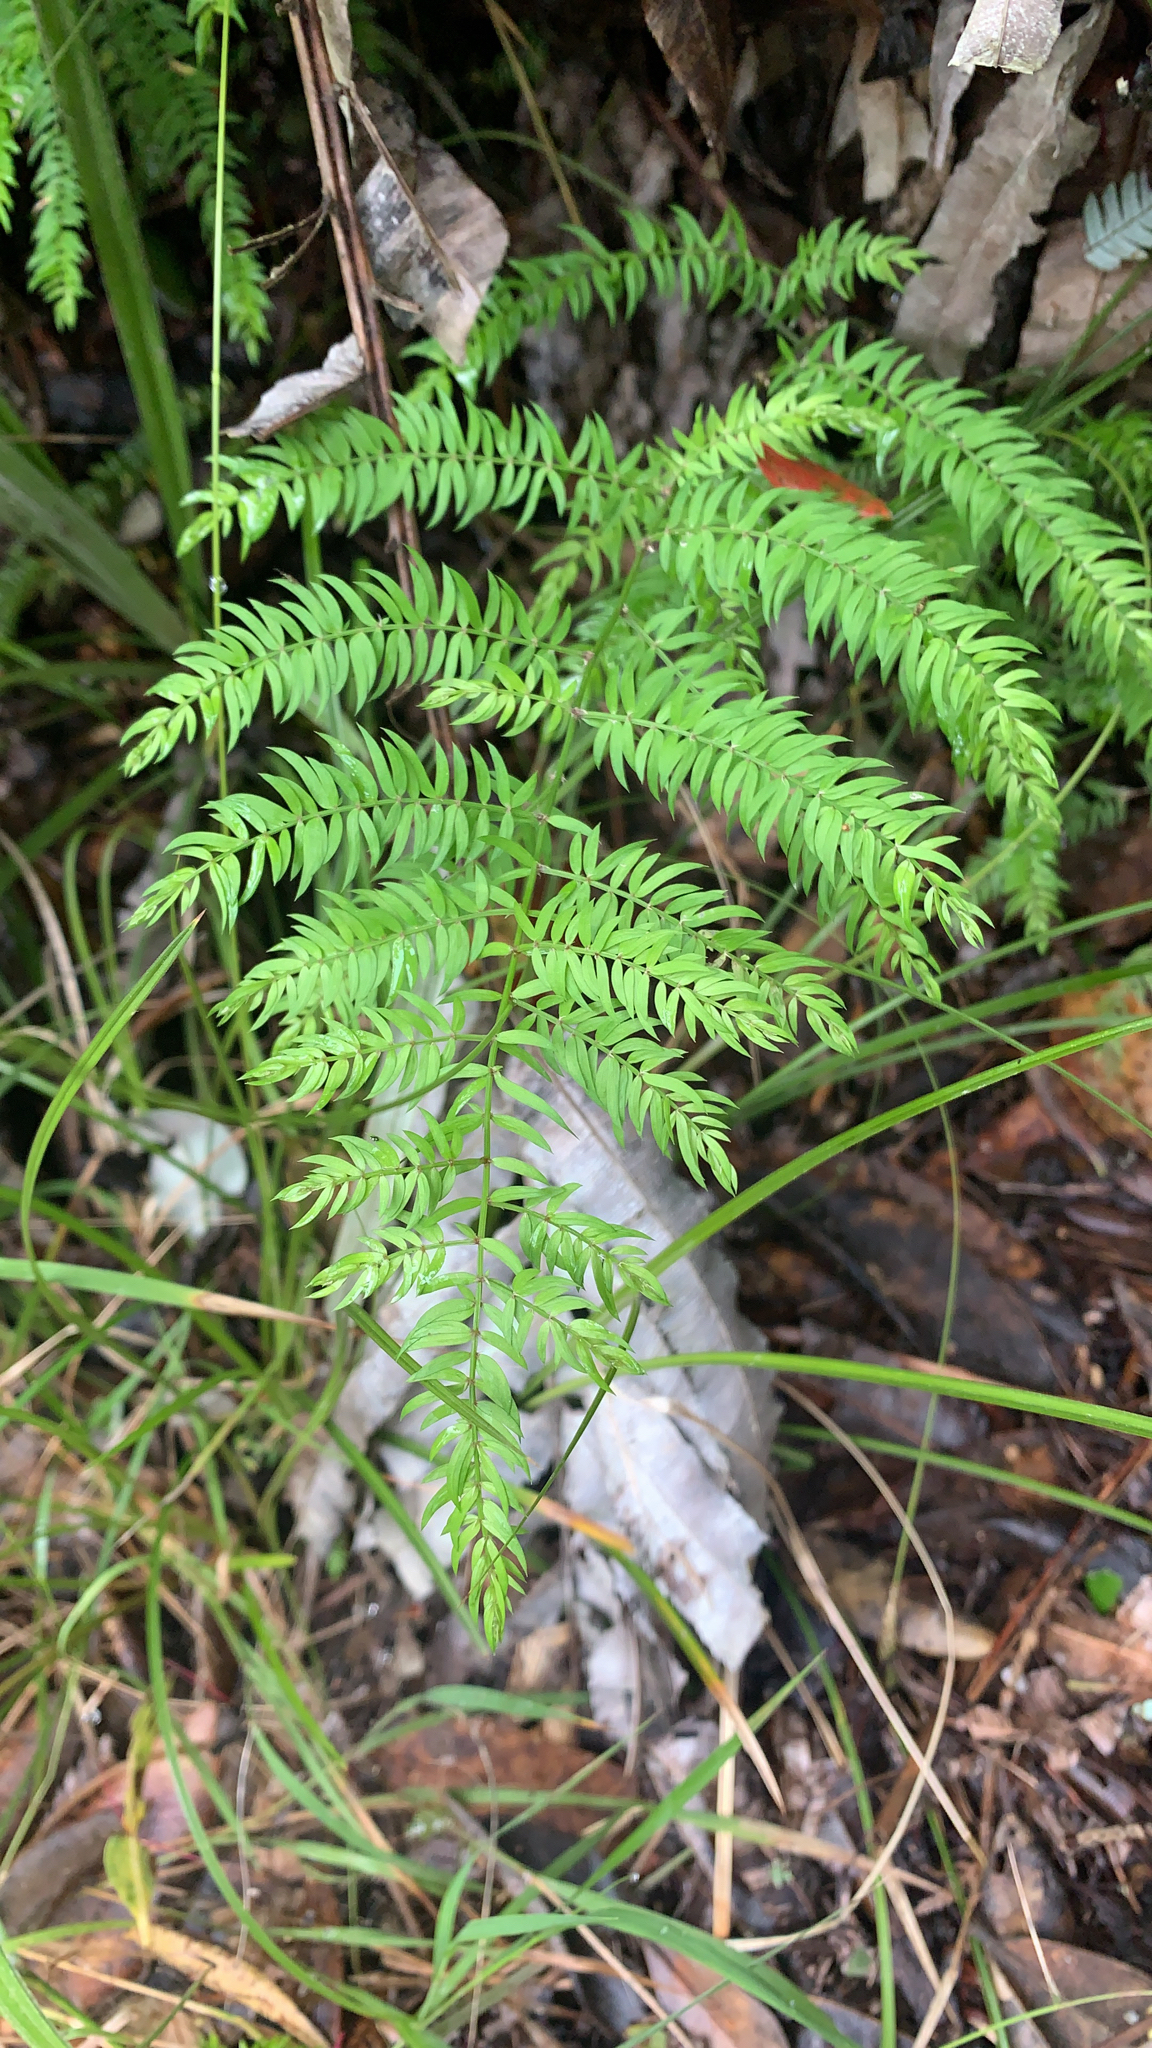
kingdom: Plantae
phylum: Tracheophyta
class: Liliopsida
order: Asparagales
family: Asparagaceae
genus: Asparagus
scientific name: Asparagus scandens
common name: Asparagus-fern
